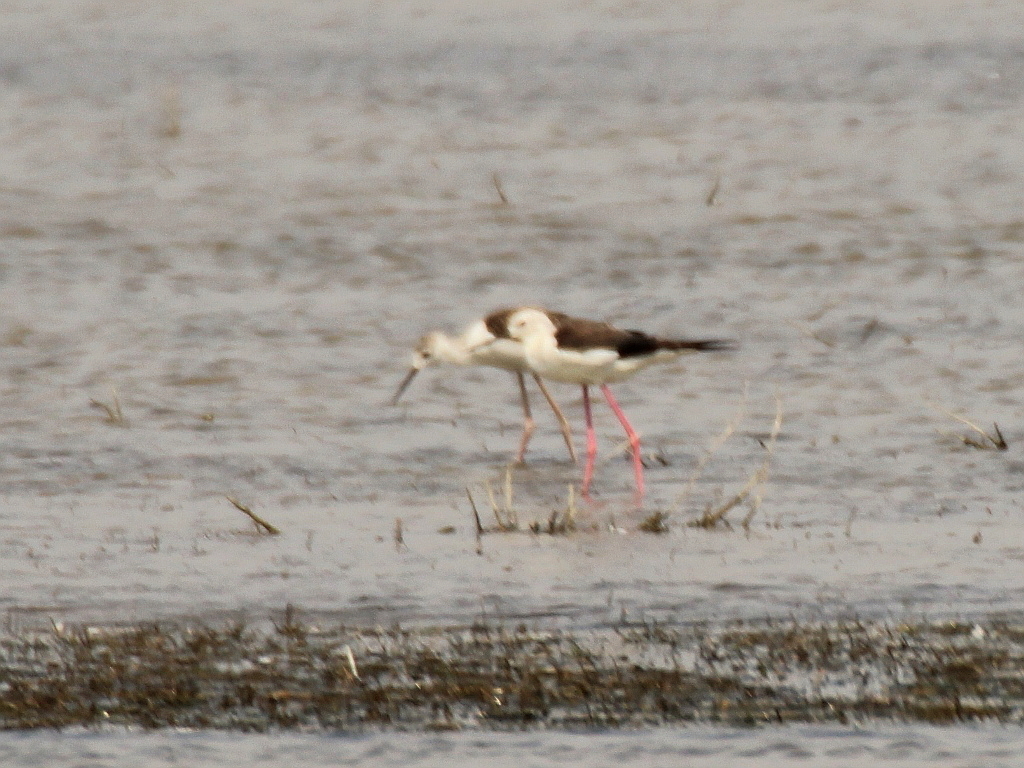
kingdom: Animalia
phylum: Chordata
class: Aves
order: Charadriiformes
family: Recurvirostridae
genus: Himantopus
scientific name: Himantopus himantopus
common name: Black-winged stilt
